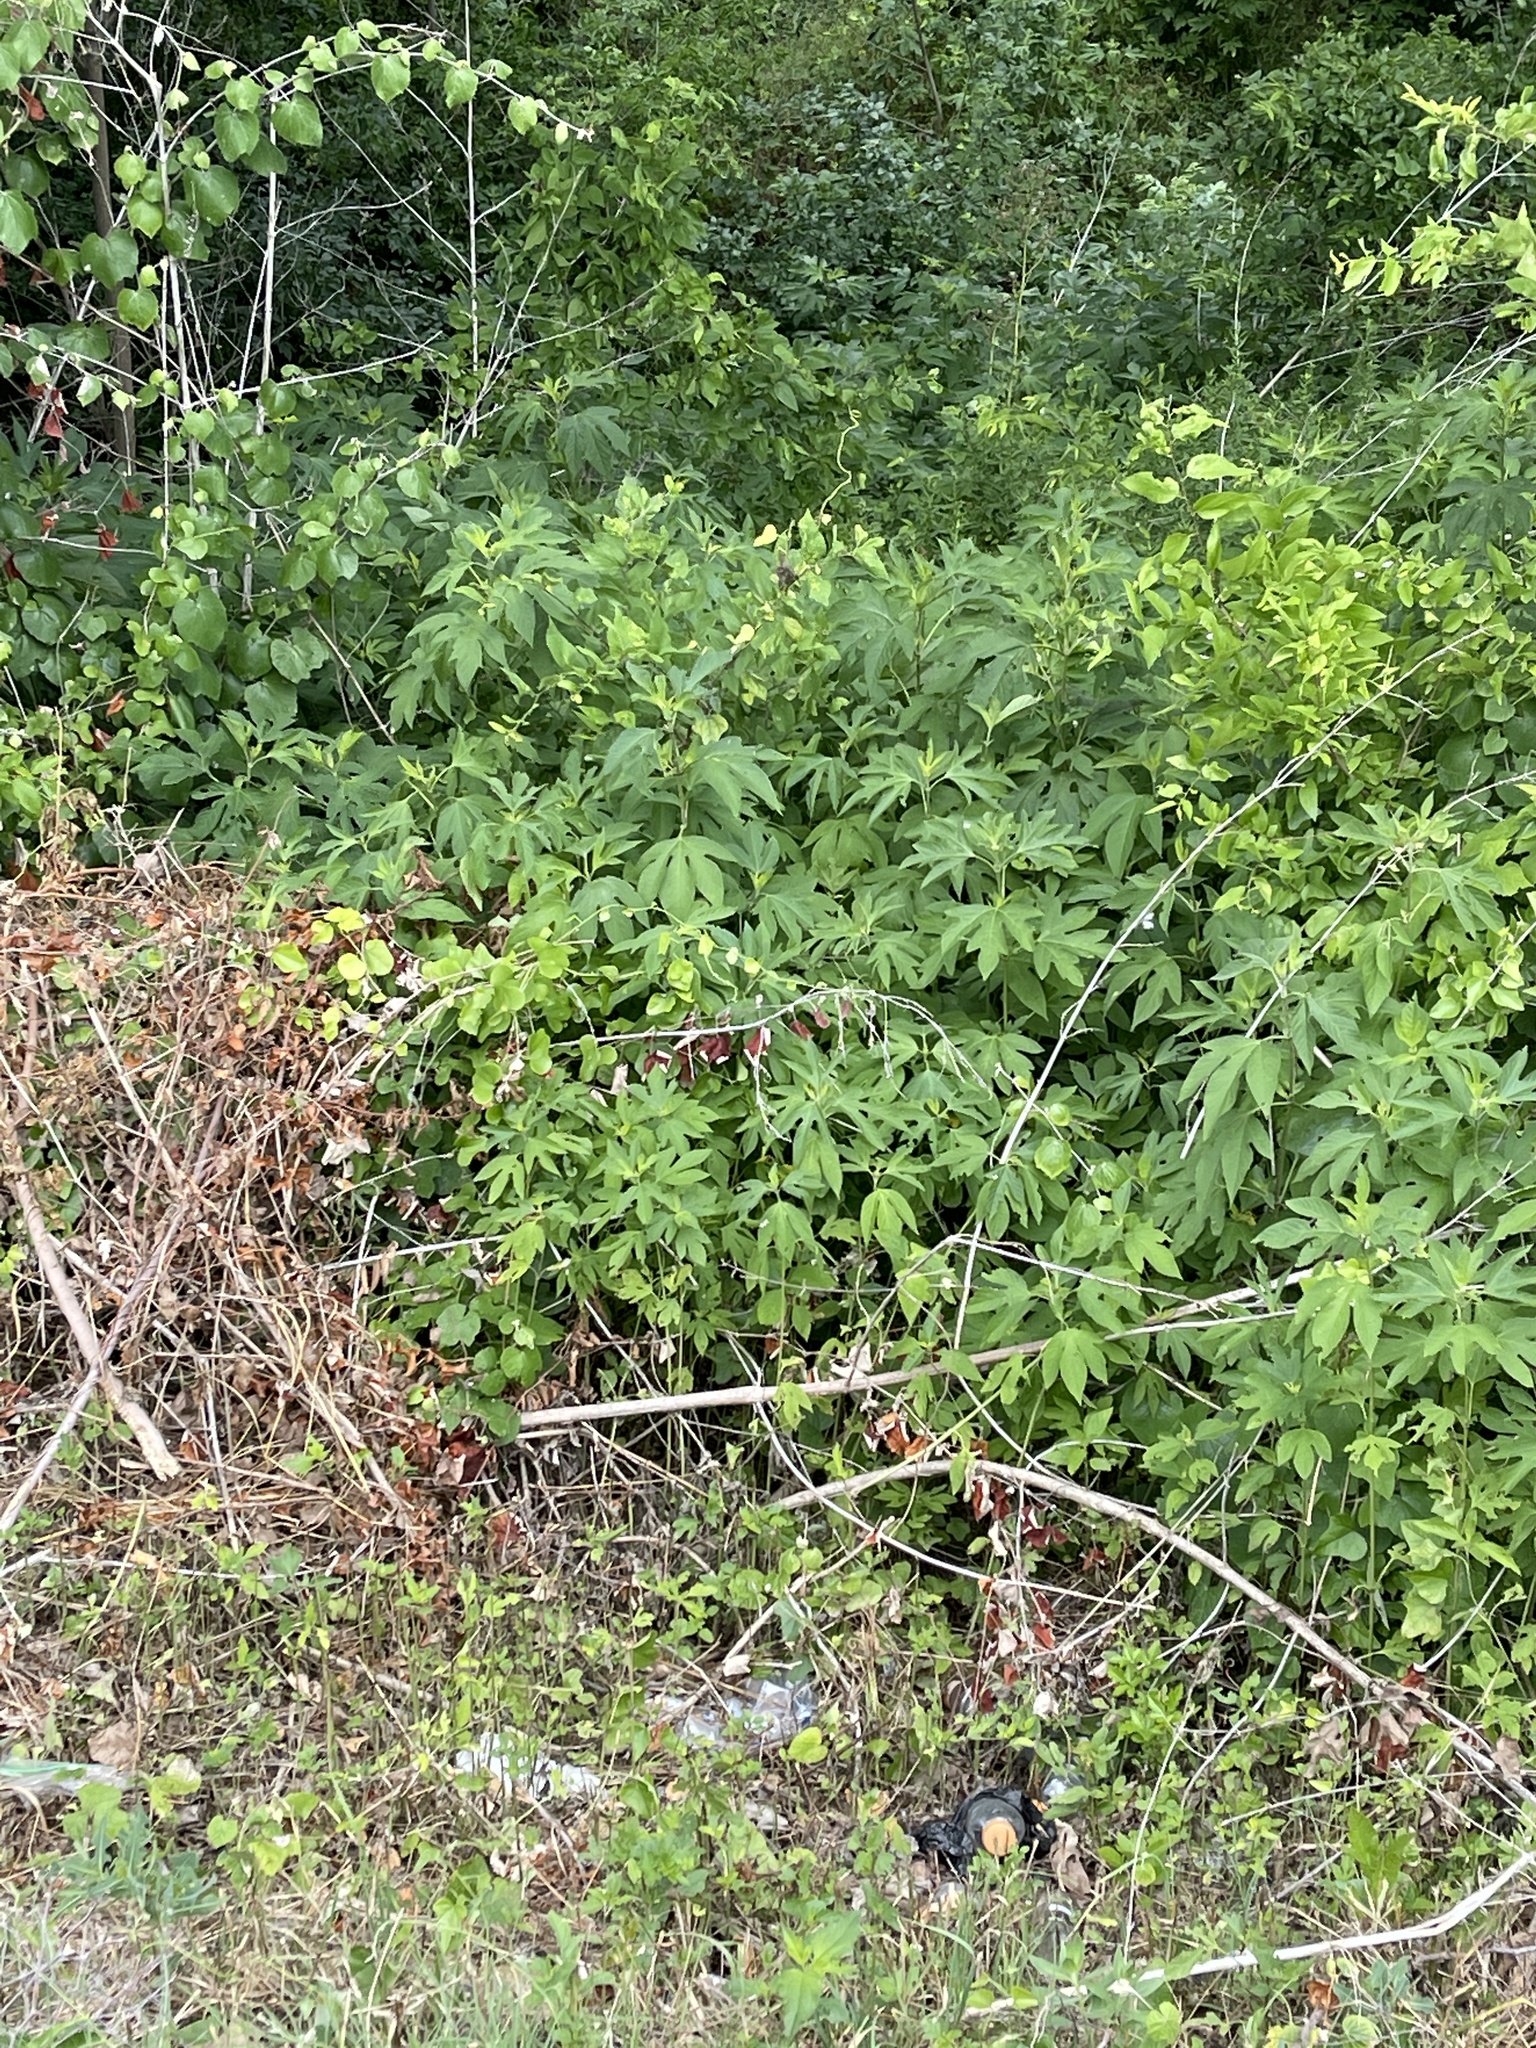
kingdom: Plantae
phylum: Tracheophyta
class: Magnoliopsida
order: Asterales
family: Asteraceae
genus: Ambrosia
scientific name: Ambrosia trifida
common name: Giant ragweed
